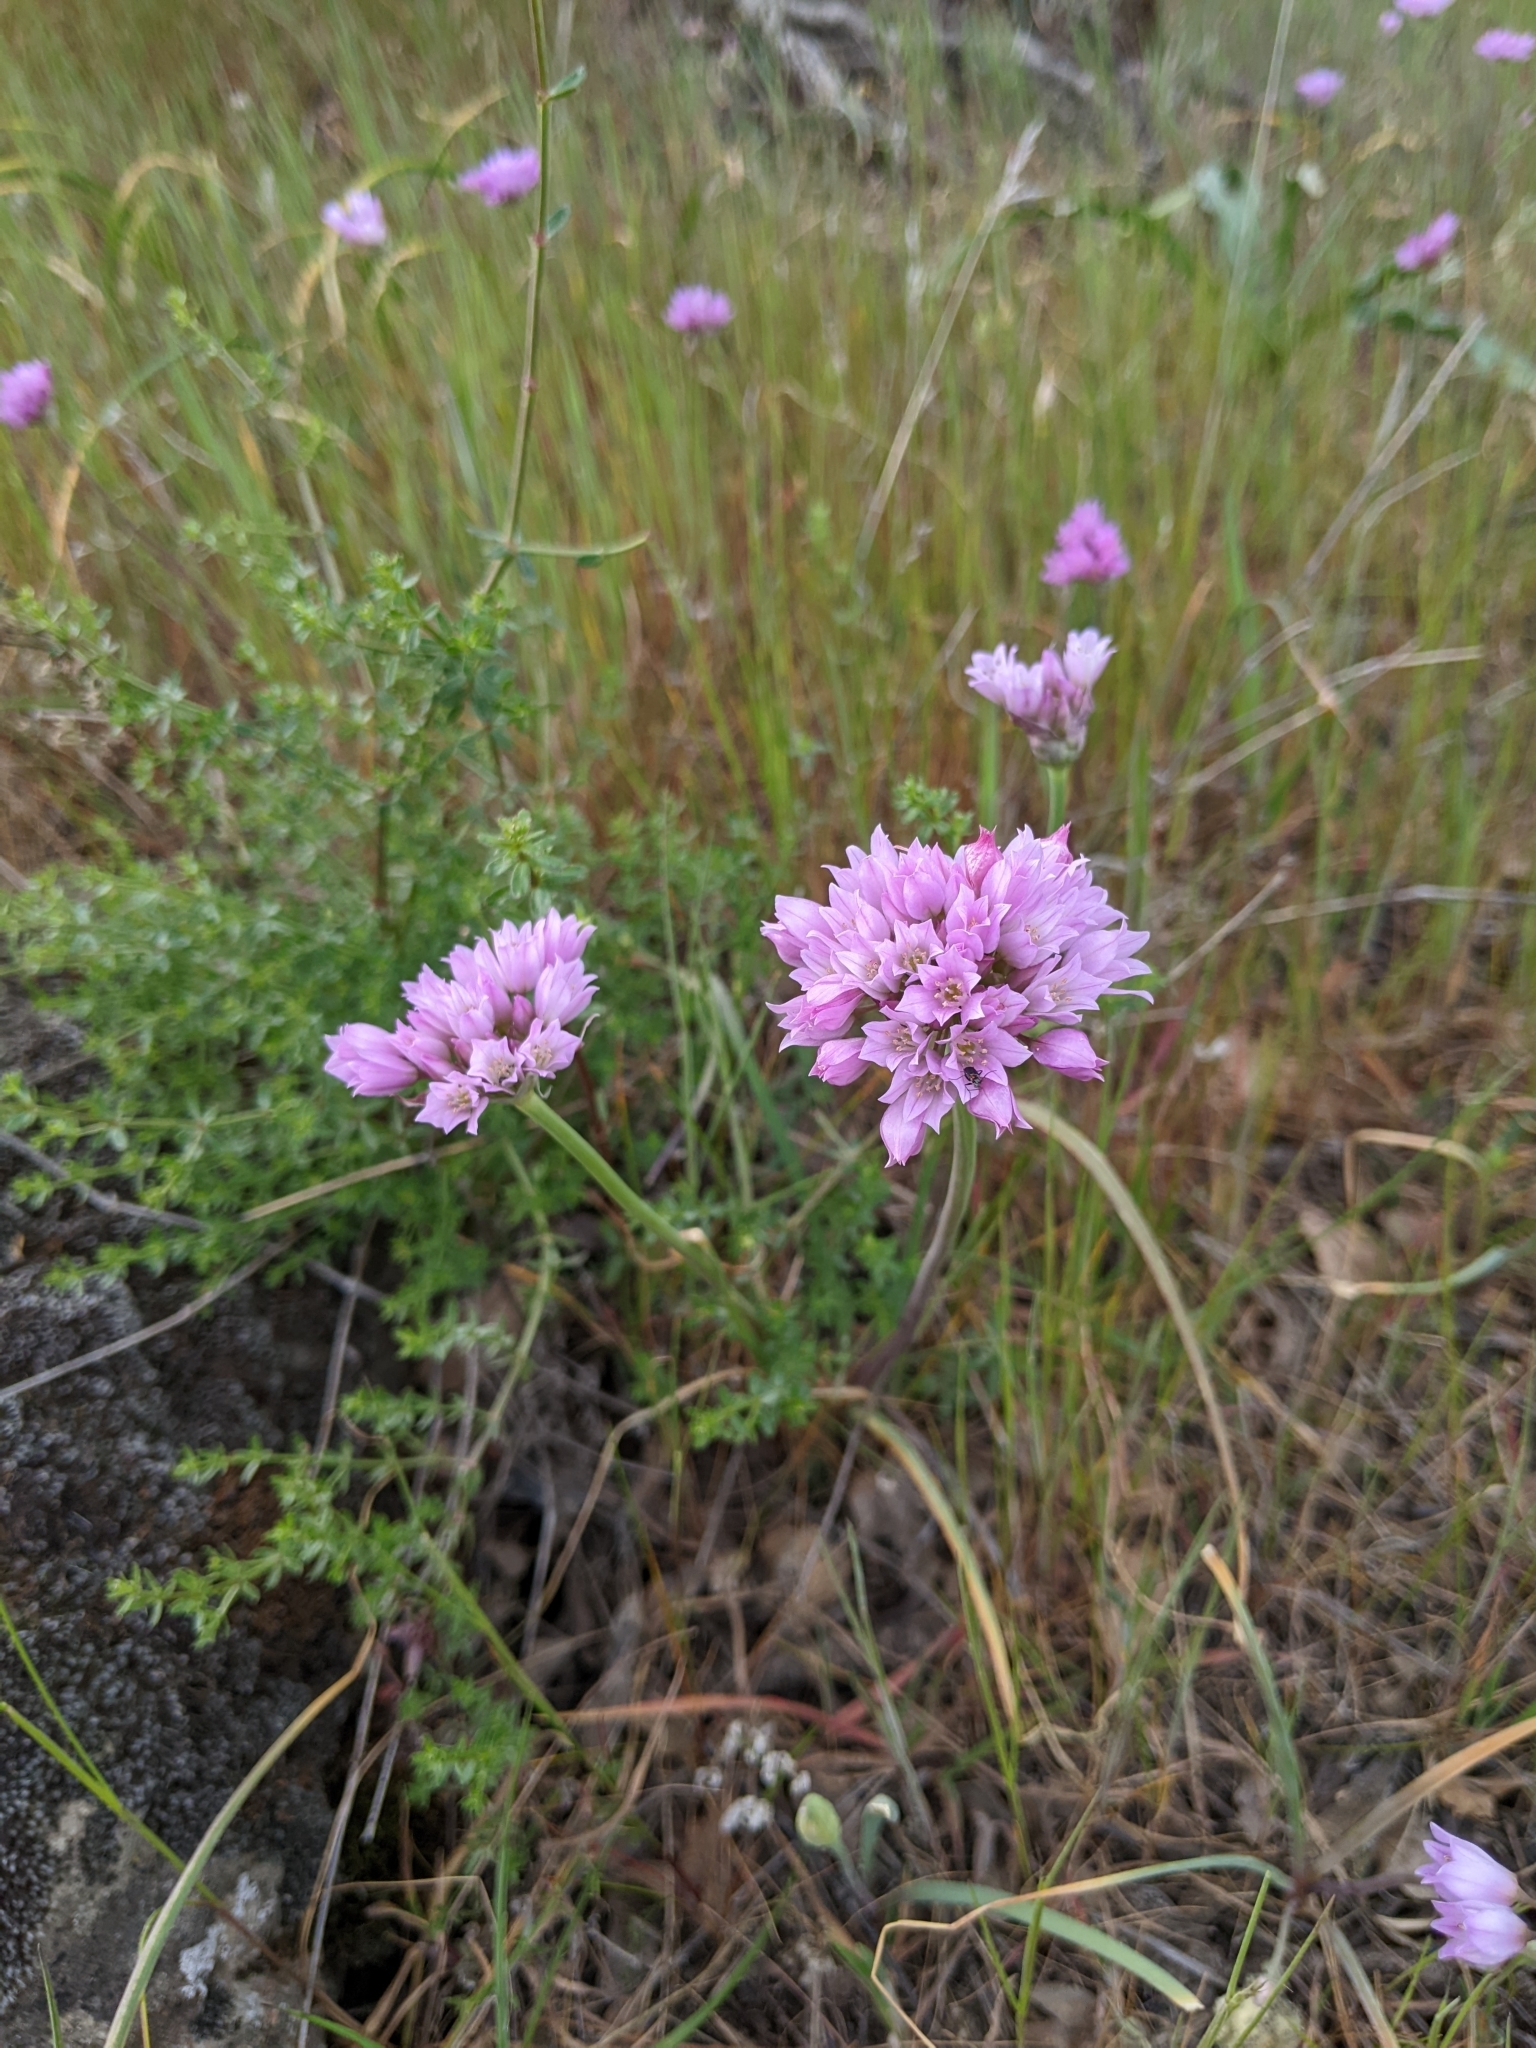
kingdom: Plantae
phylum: Tracheophyta
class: Liliopsida
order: Asparagales
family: Amaryllidaceae
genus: Allium
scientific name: Allium serra
